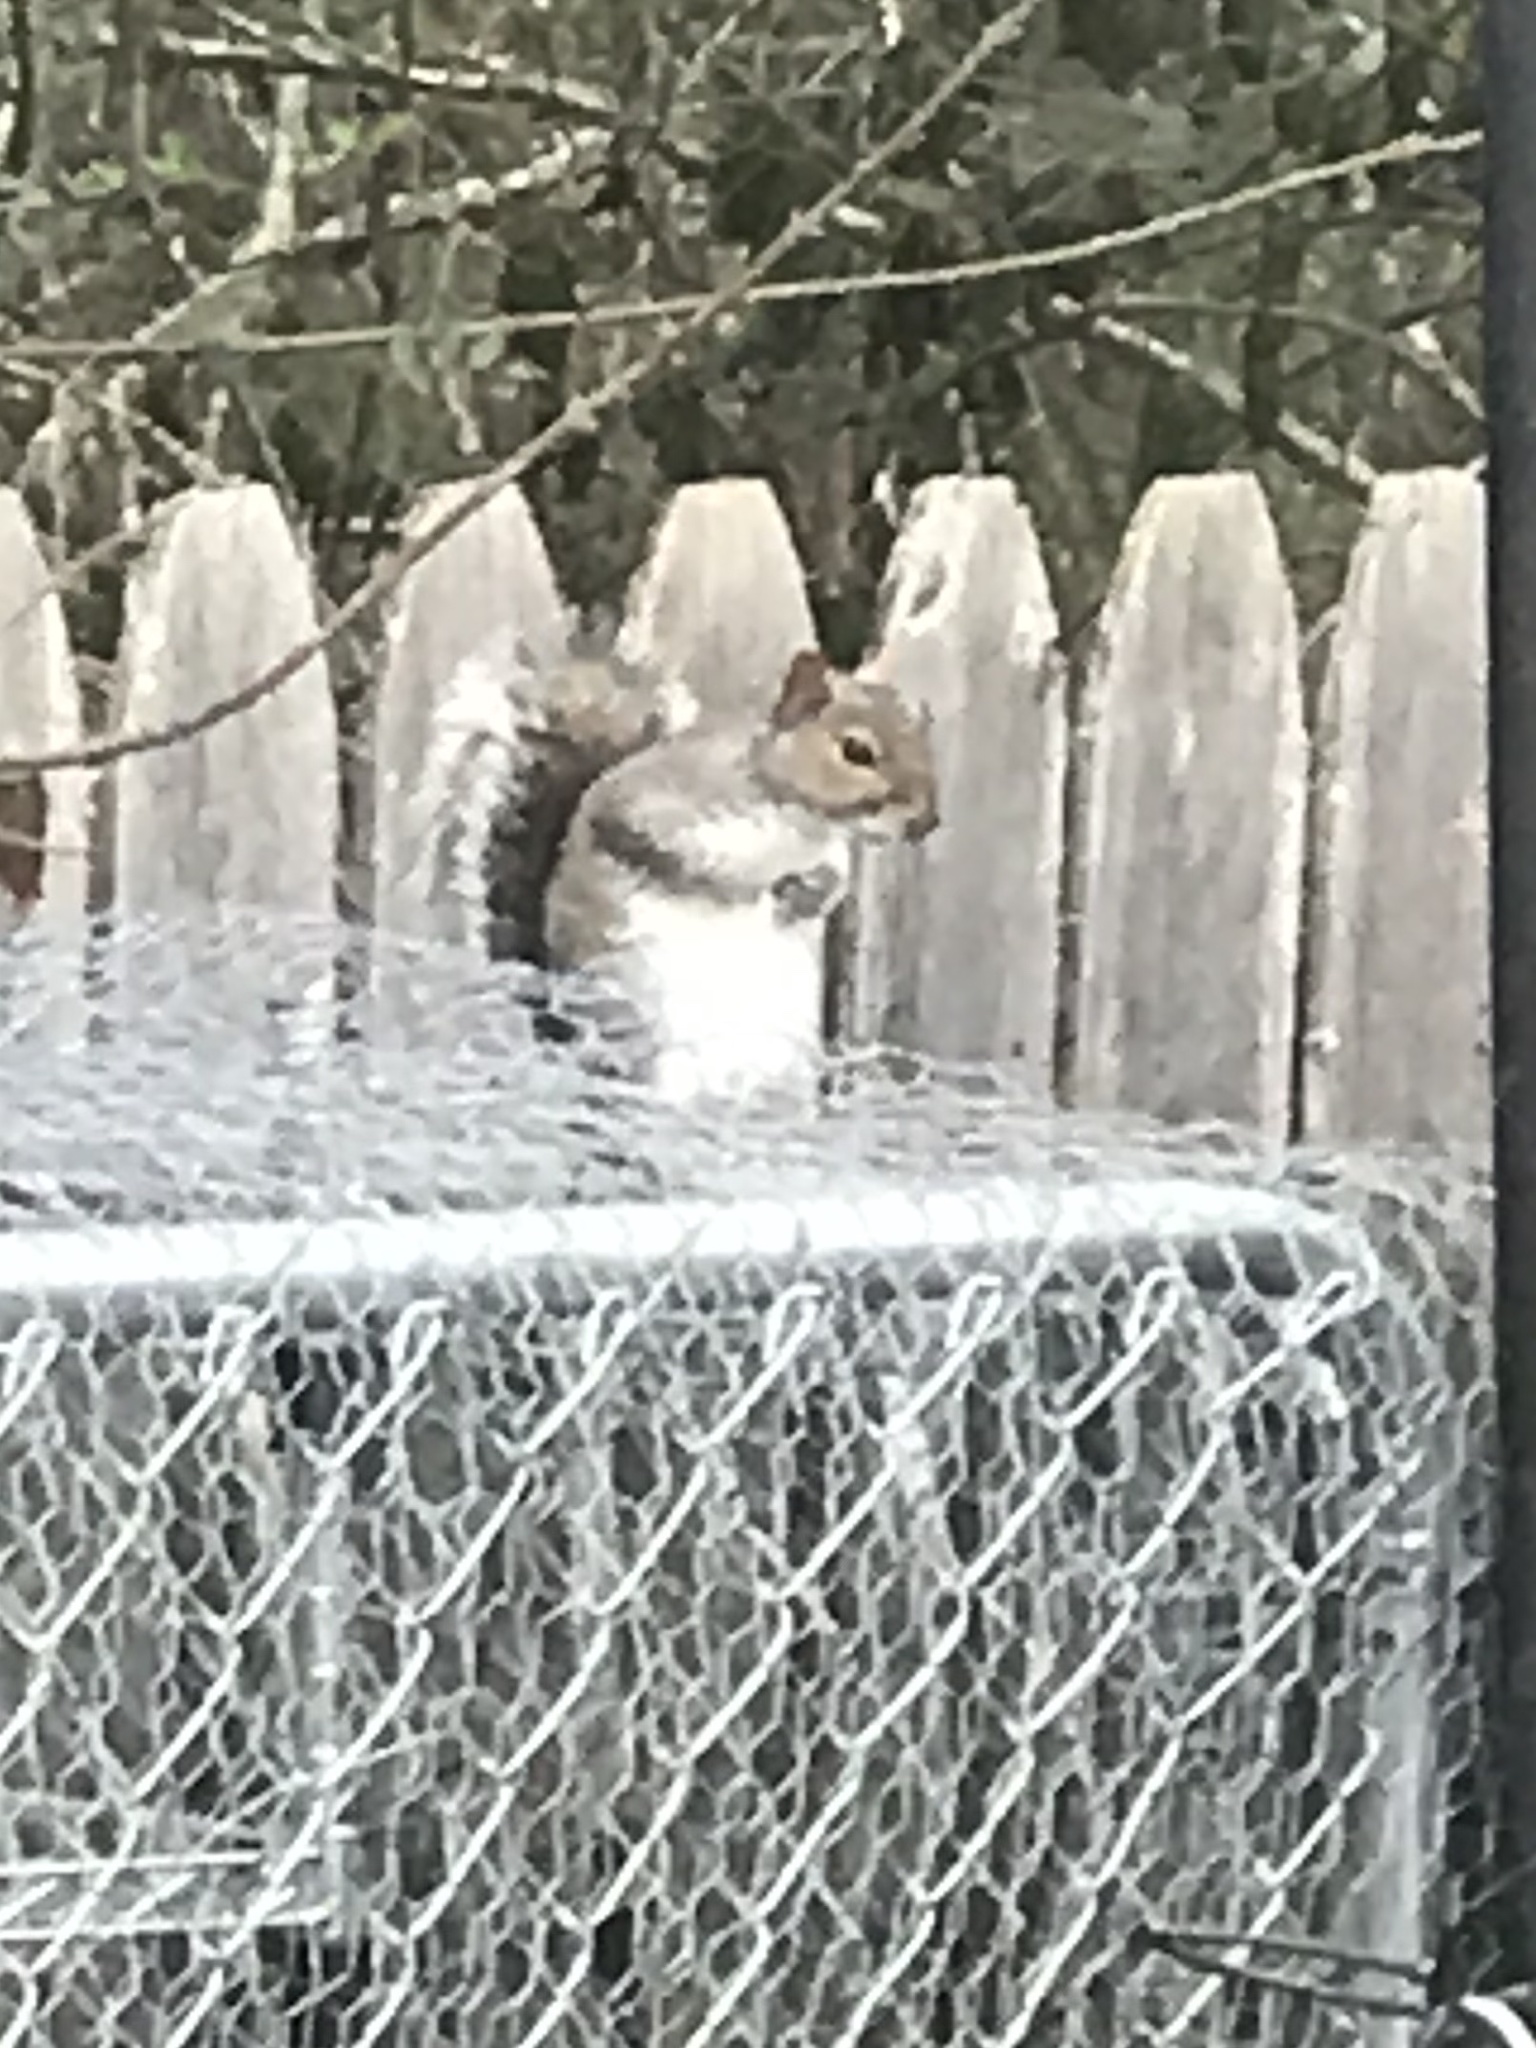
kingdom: Animalia
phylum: Chordata
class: Mammalia
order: Rodentia
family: Sciuridae
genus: Sciurus
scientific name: Sciurus carolinensis
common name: Eastern gray squirrel
